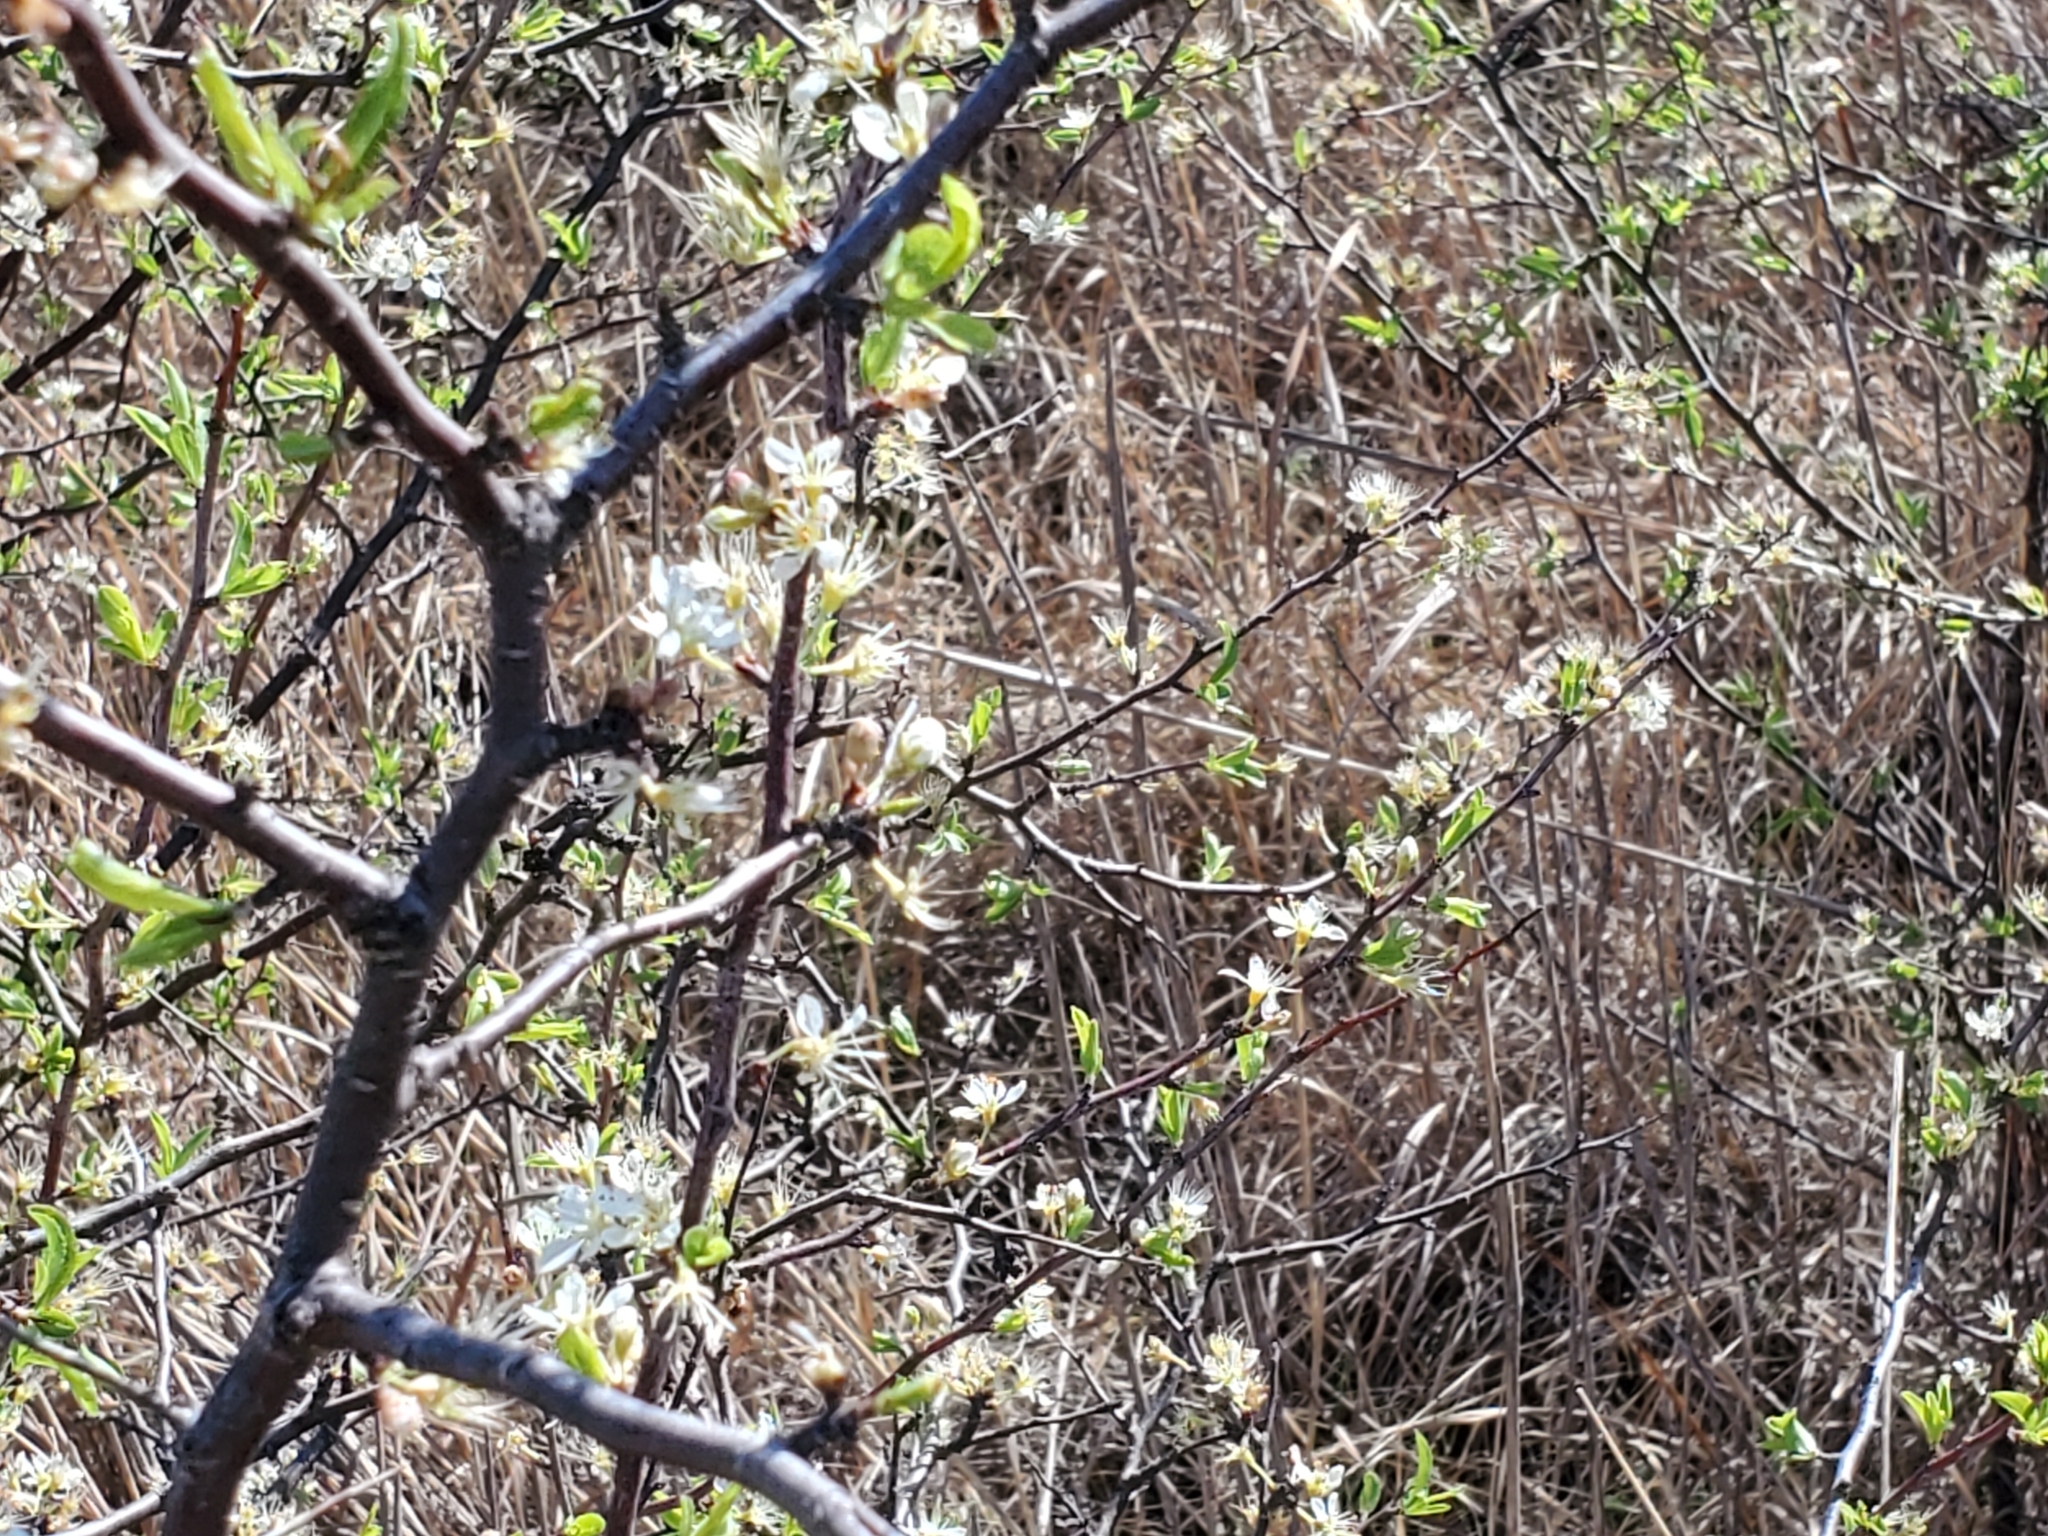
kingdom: Plantae
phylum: Tracheophyta
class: Magnoliopsida
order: Rosales
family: Rosaceae
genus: Prunus
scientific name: Prunus angustifolia
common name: Cherokee plum
